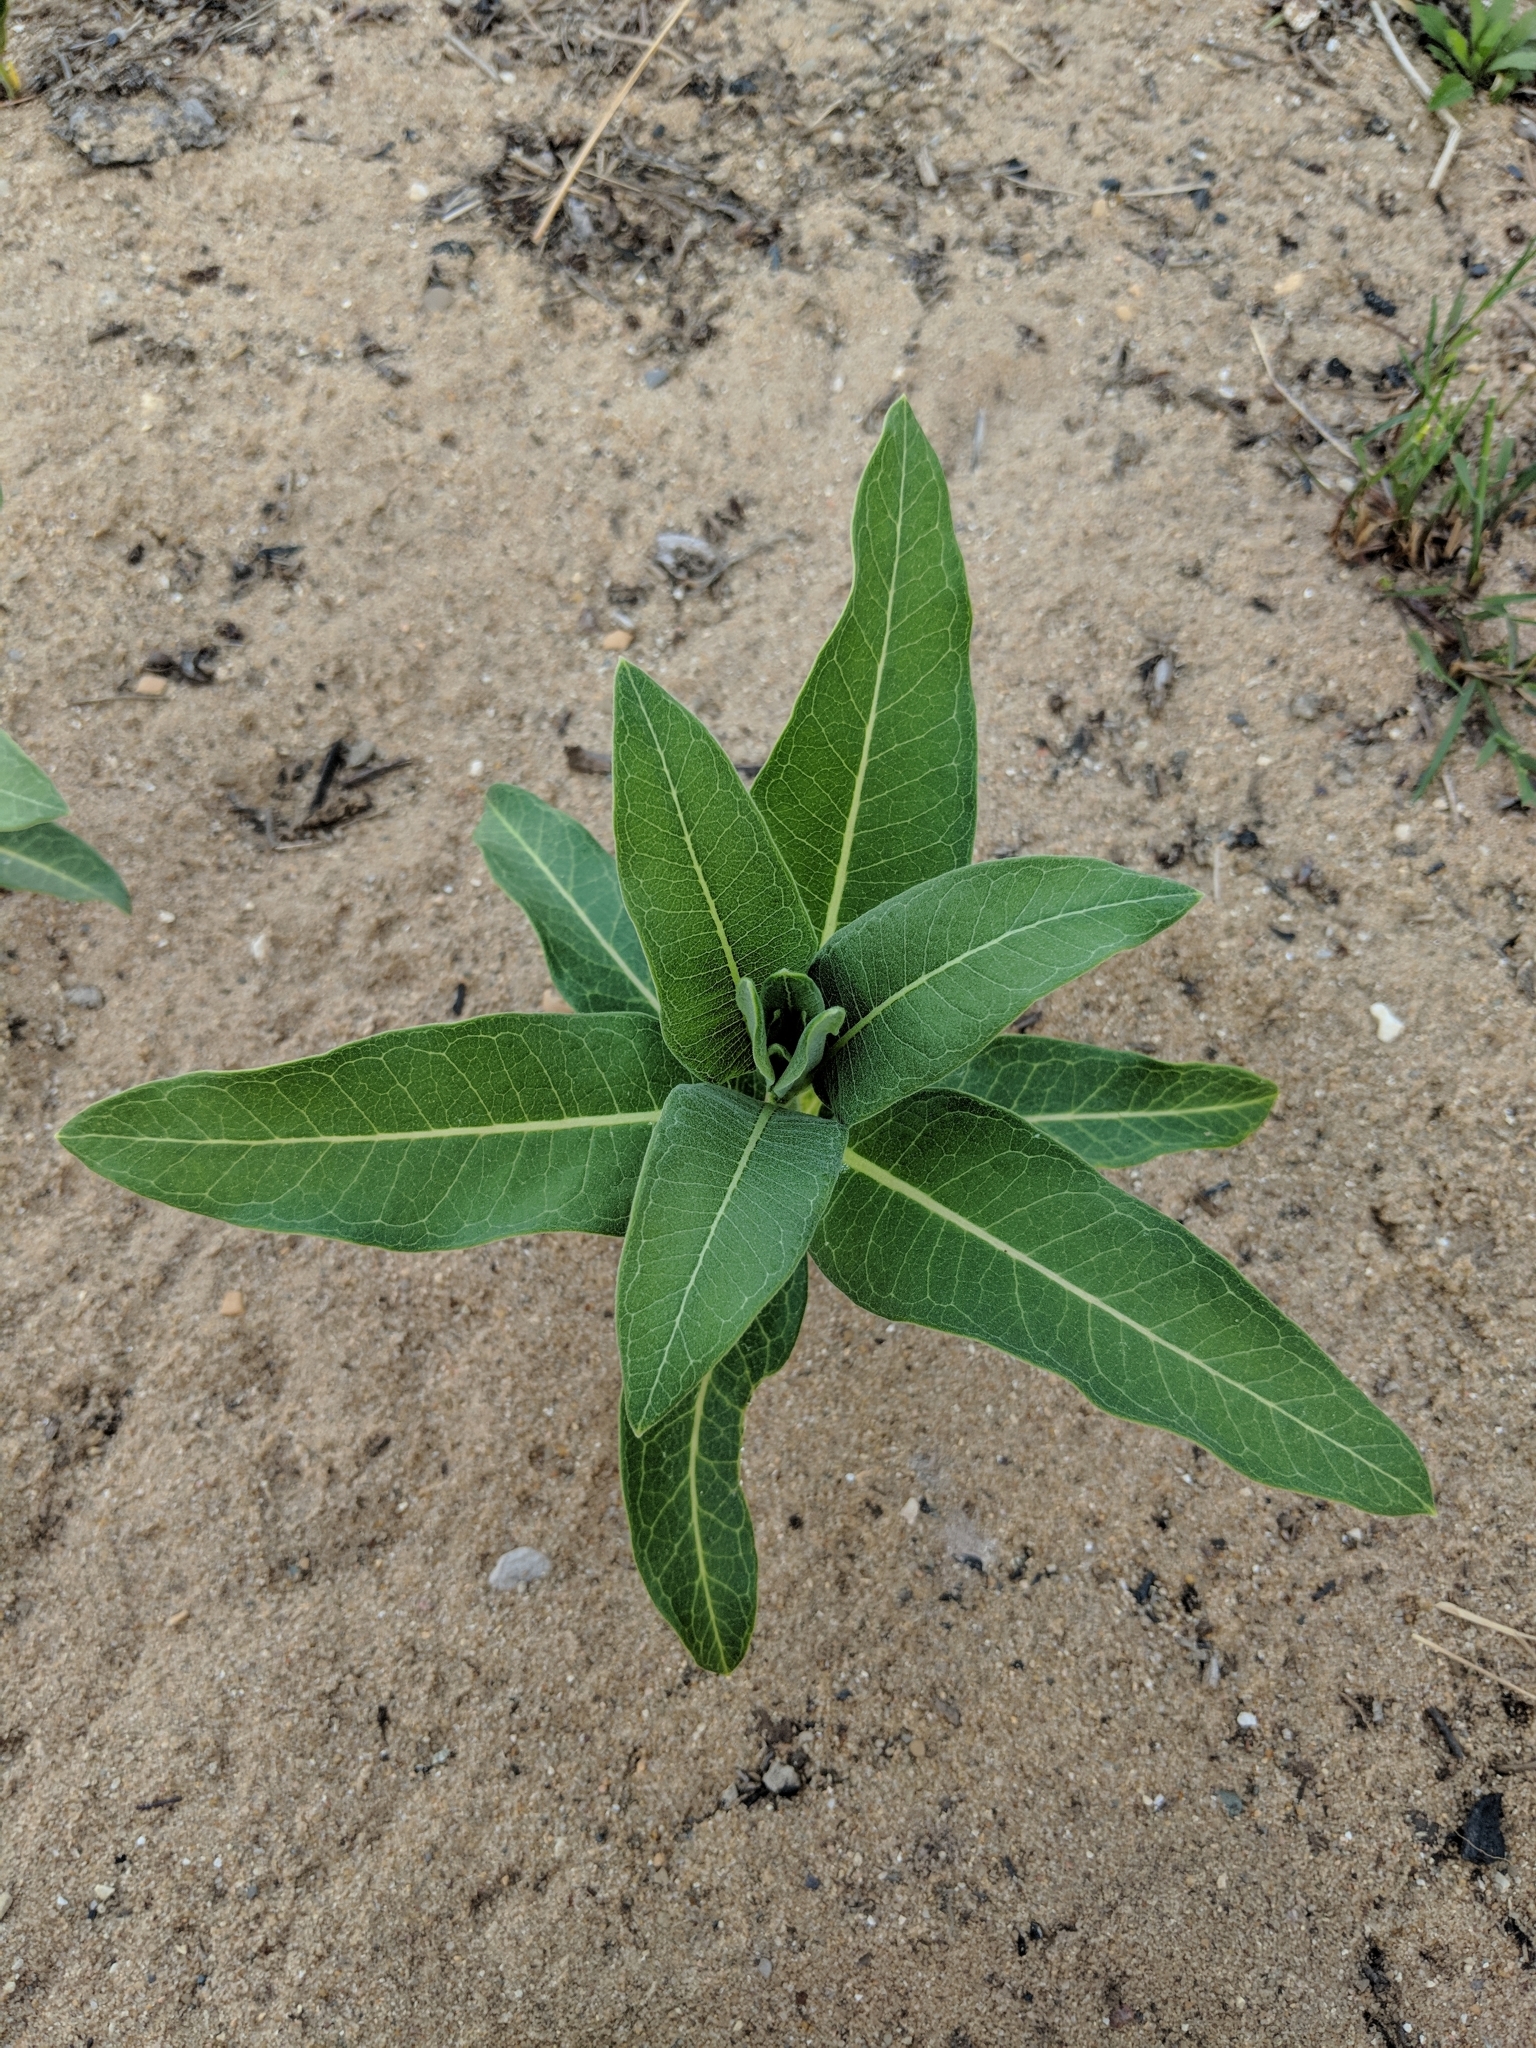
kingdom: Plantae
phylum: Tracheophyta
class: Magnoliopsida
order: Gentianales
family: Apocynaceae
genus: Asclepias
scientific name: Asclepias syriaca
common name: Common milkweed
